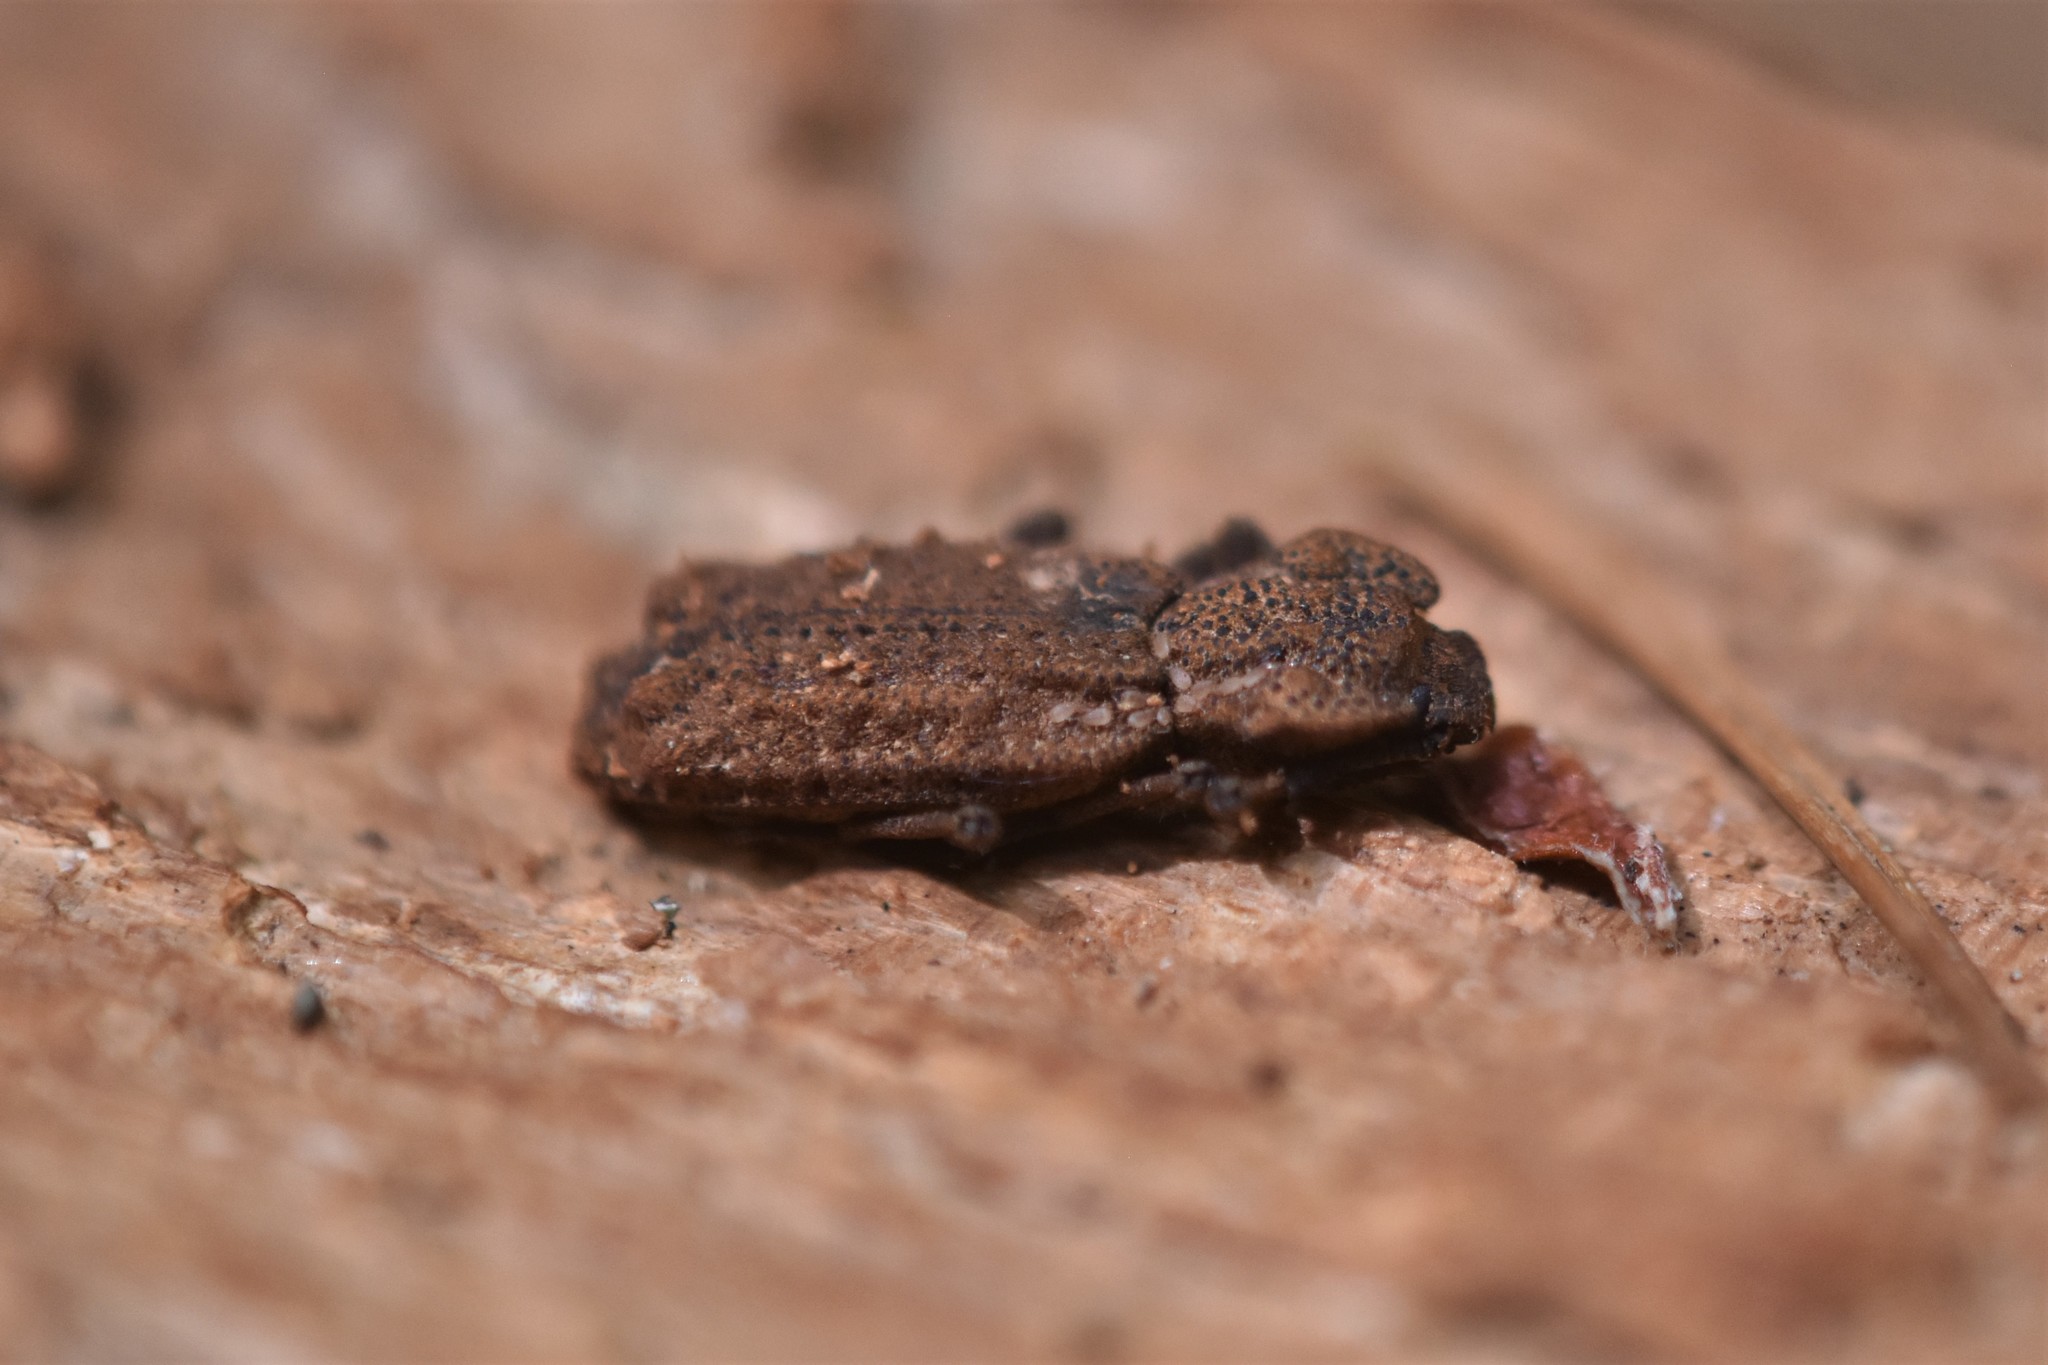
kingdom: Animalia
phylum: Arthropoda
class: Insecta
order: Coleoptera
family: Zopheridae
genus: Phellopsis
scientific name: Phellopsis porcata
